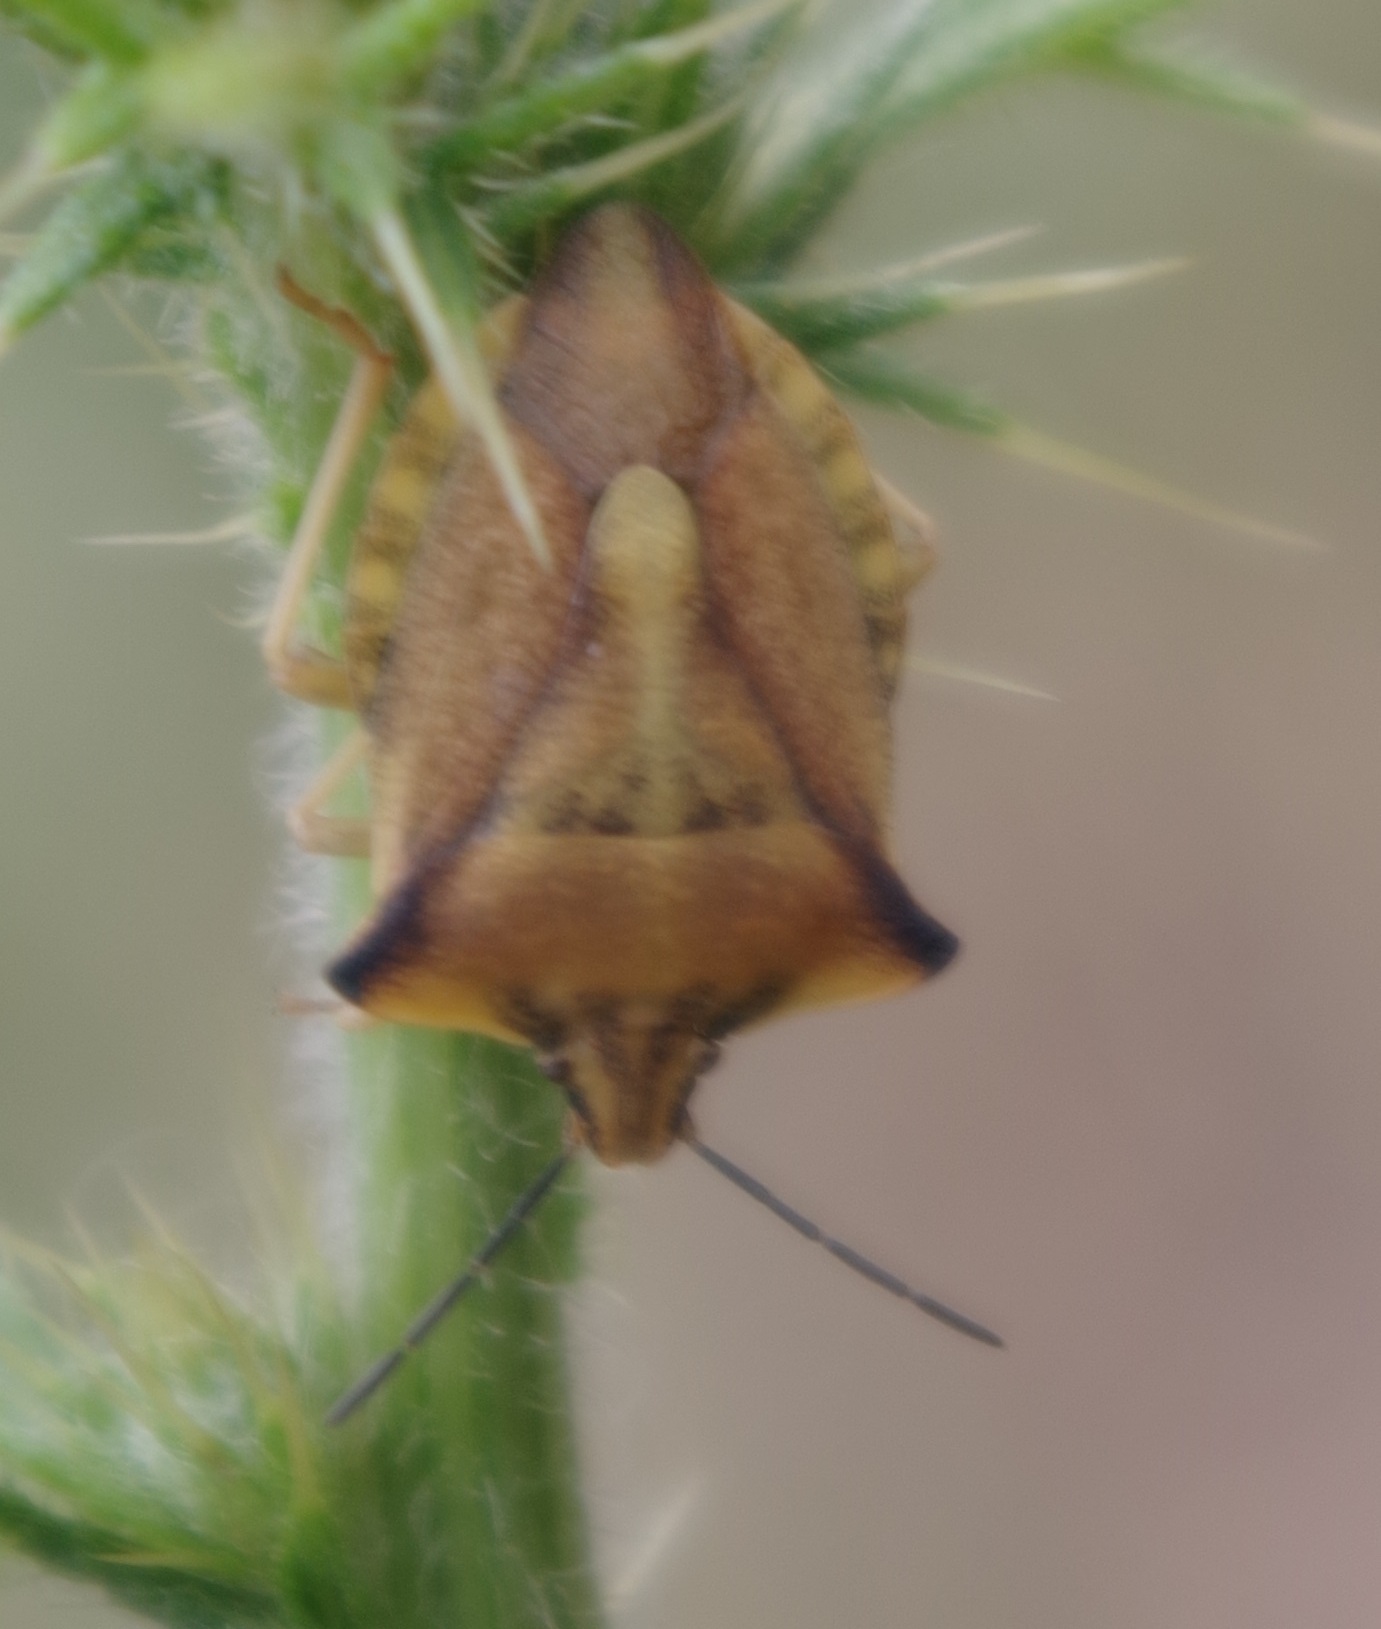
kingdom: Animalia
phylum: Arthropoda
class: Insecta
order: Hemiptera
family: Pentatomidae
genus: Carpocoris
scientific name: Carpocoris fuscispinus
